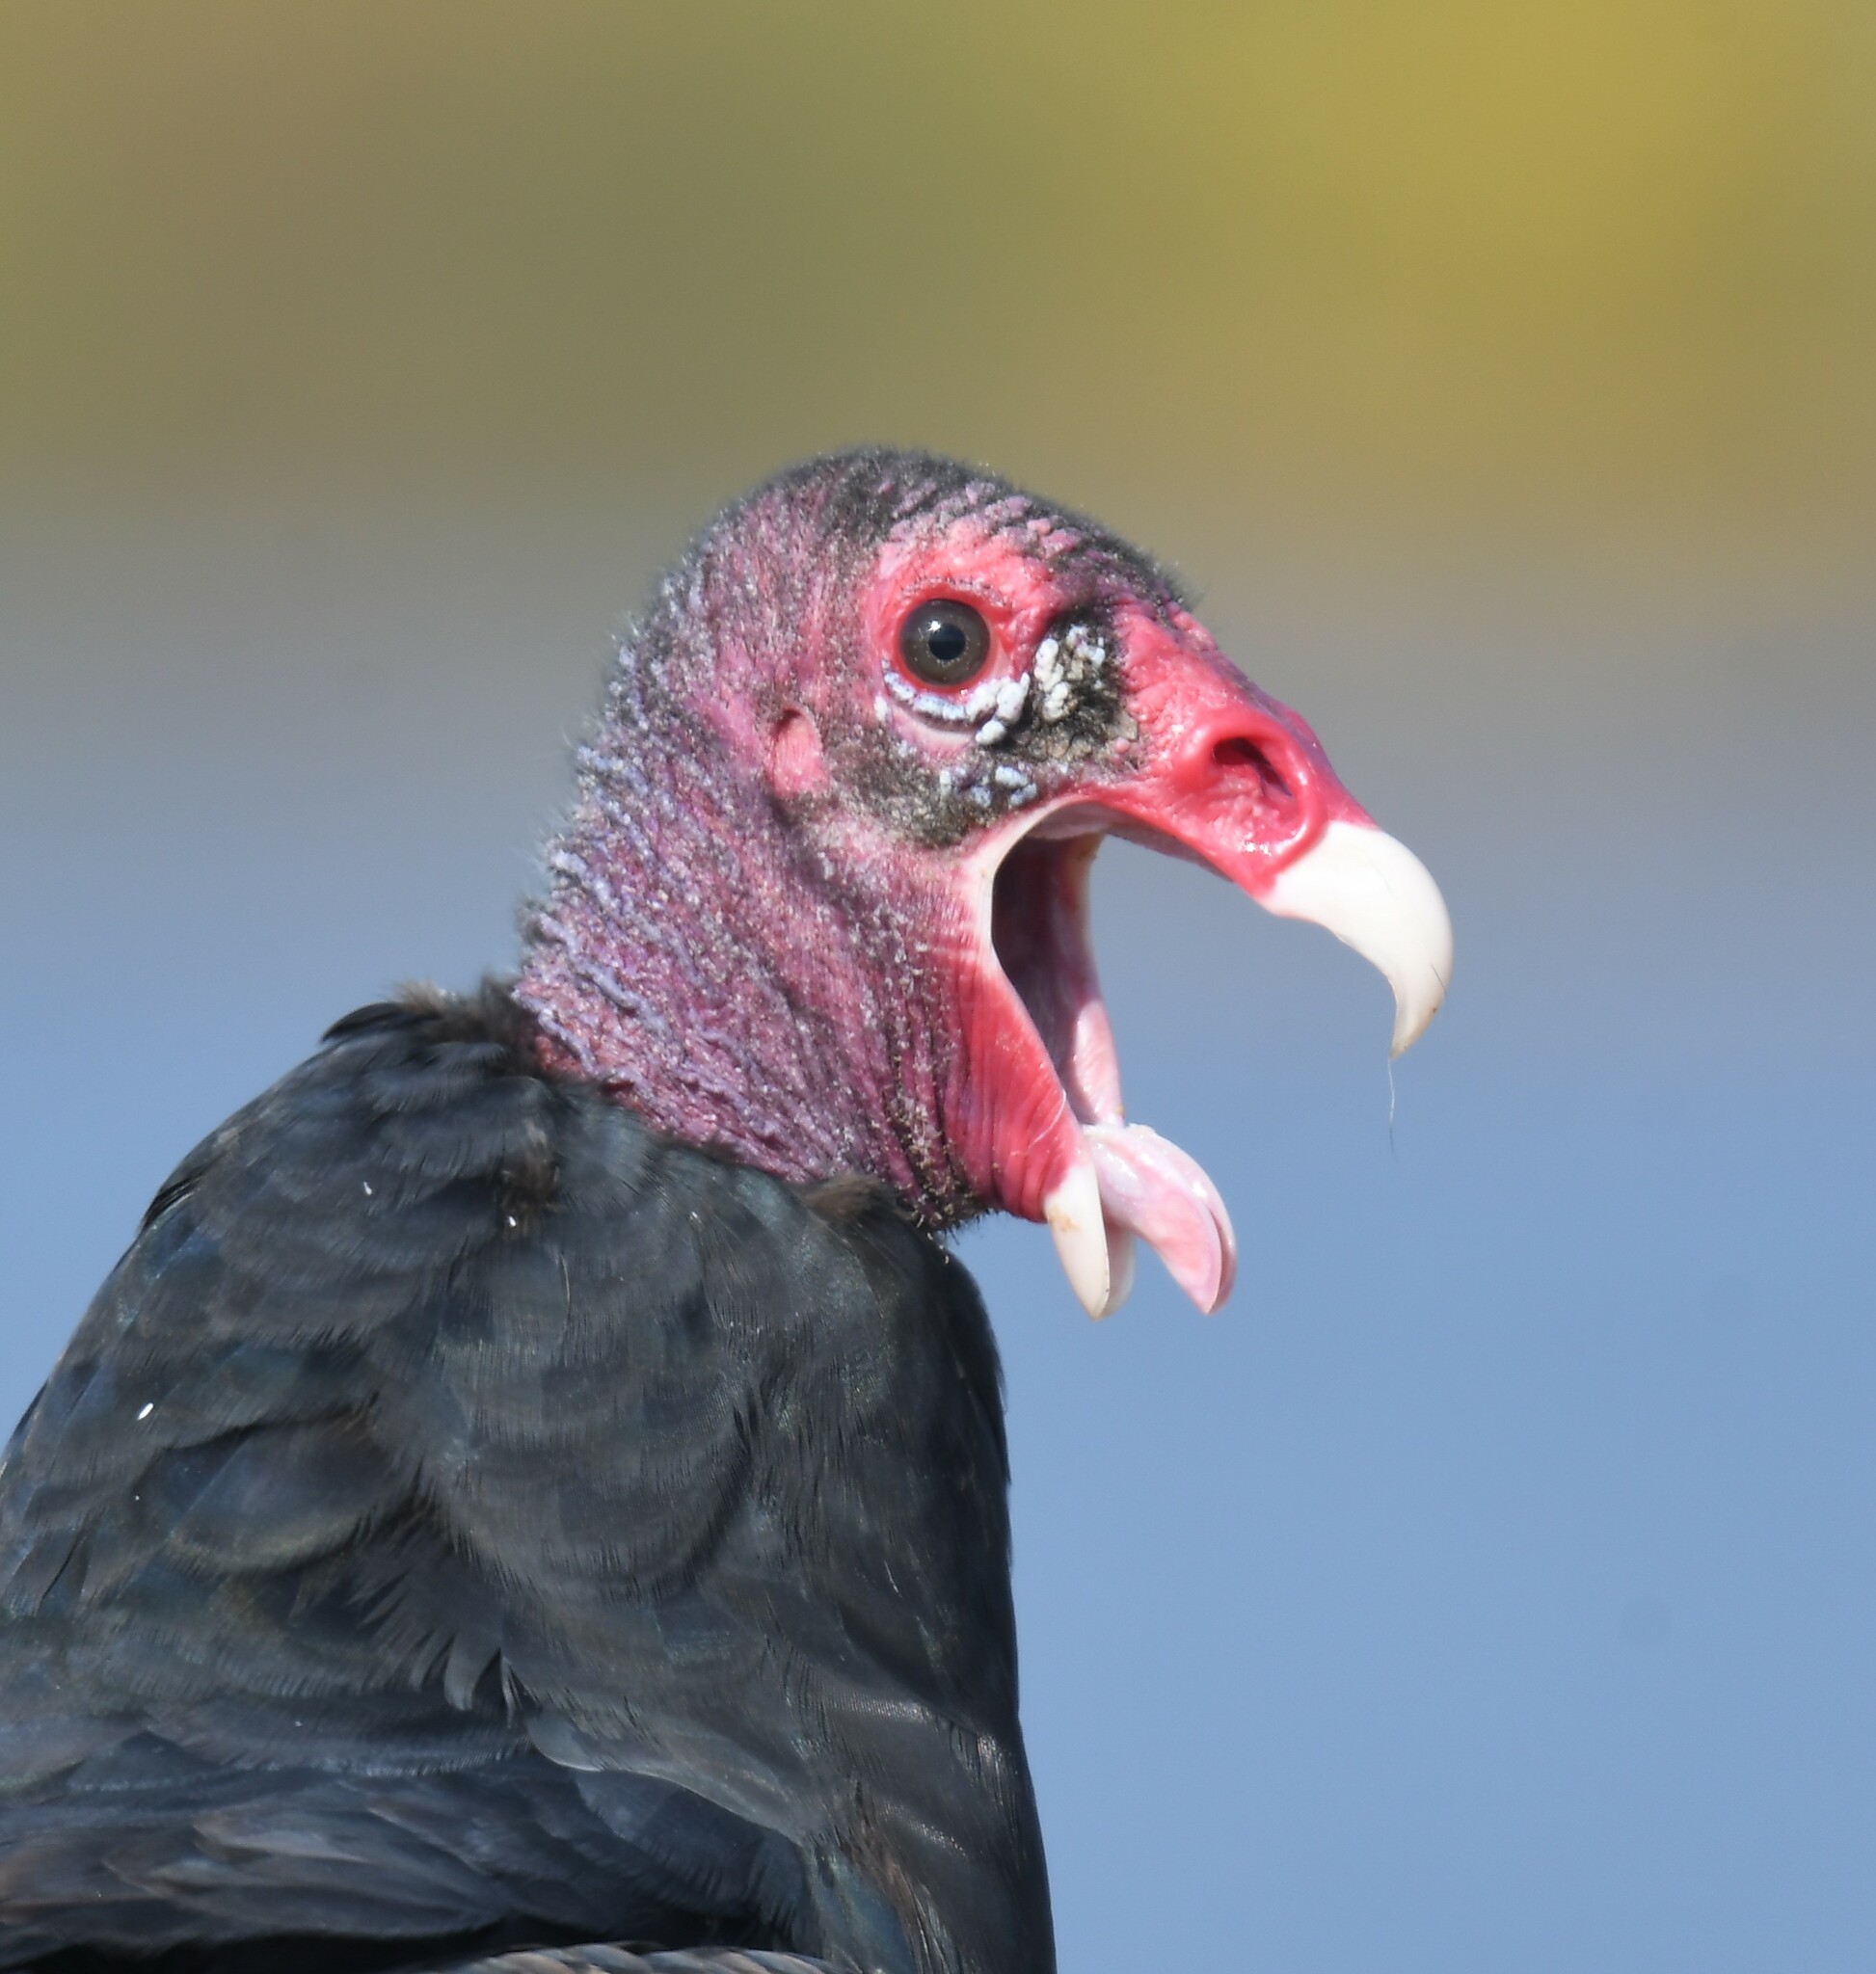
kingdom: Animalia
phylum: Chordata
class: Aves
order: Accipitriformes
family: Cathartidae
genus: Cathartes
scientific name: Cathartes aura
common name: Turkey vulture
